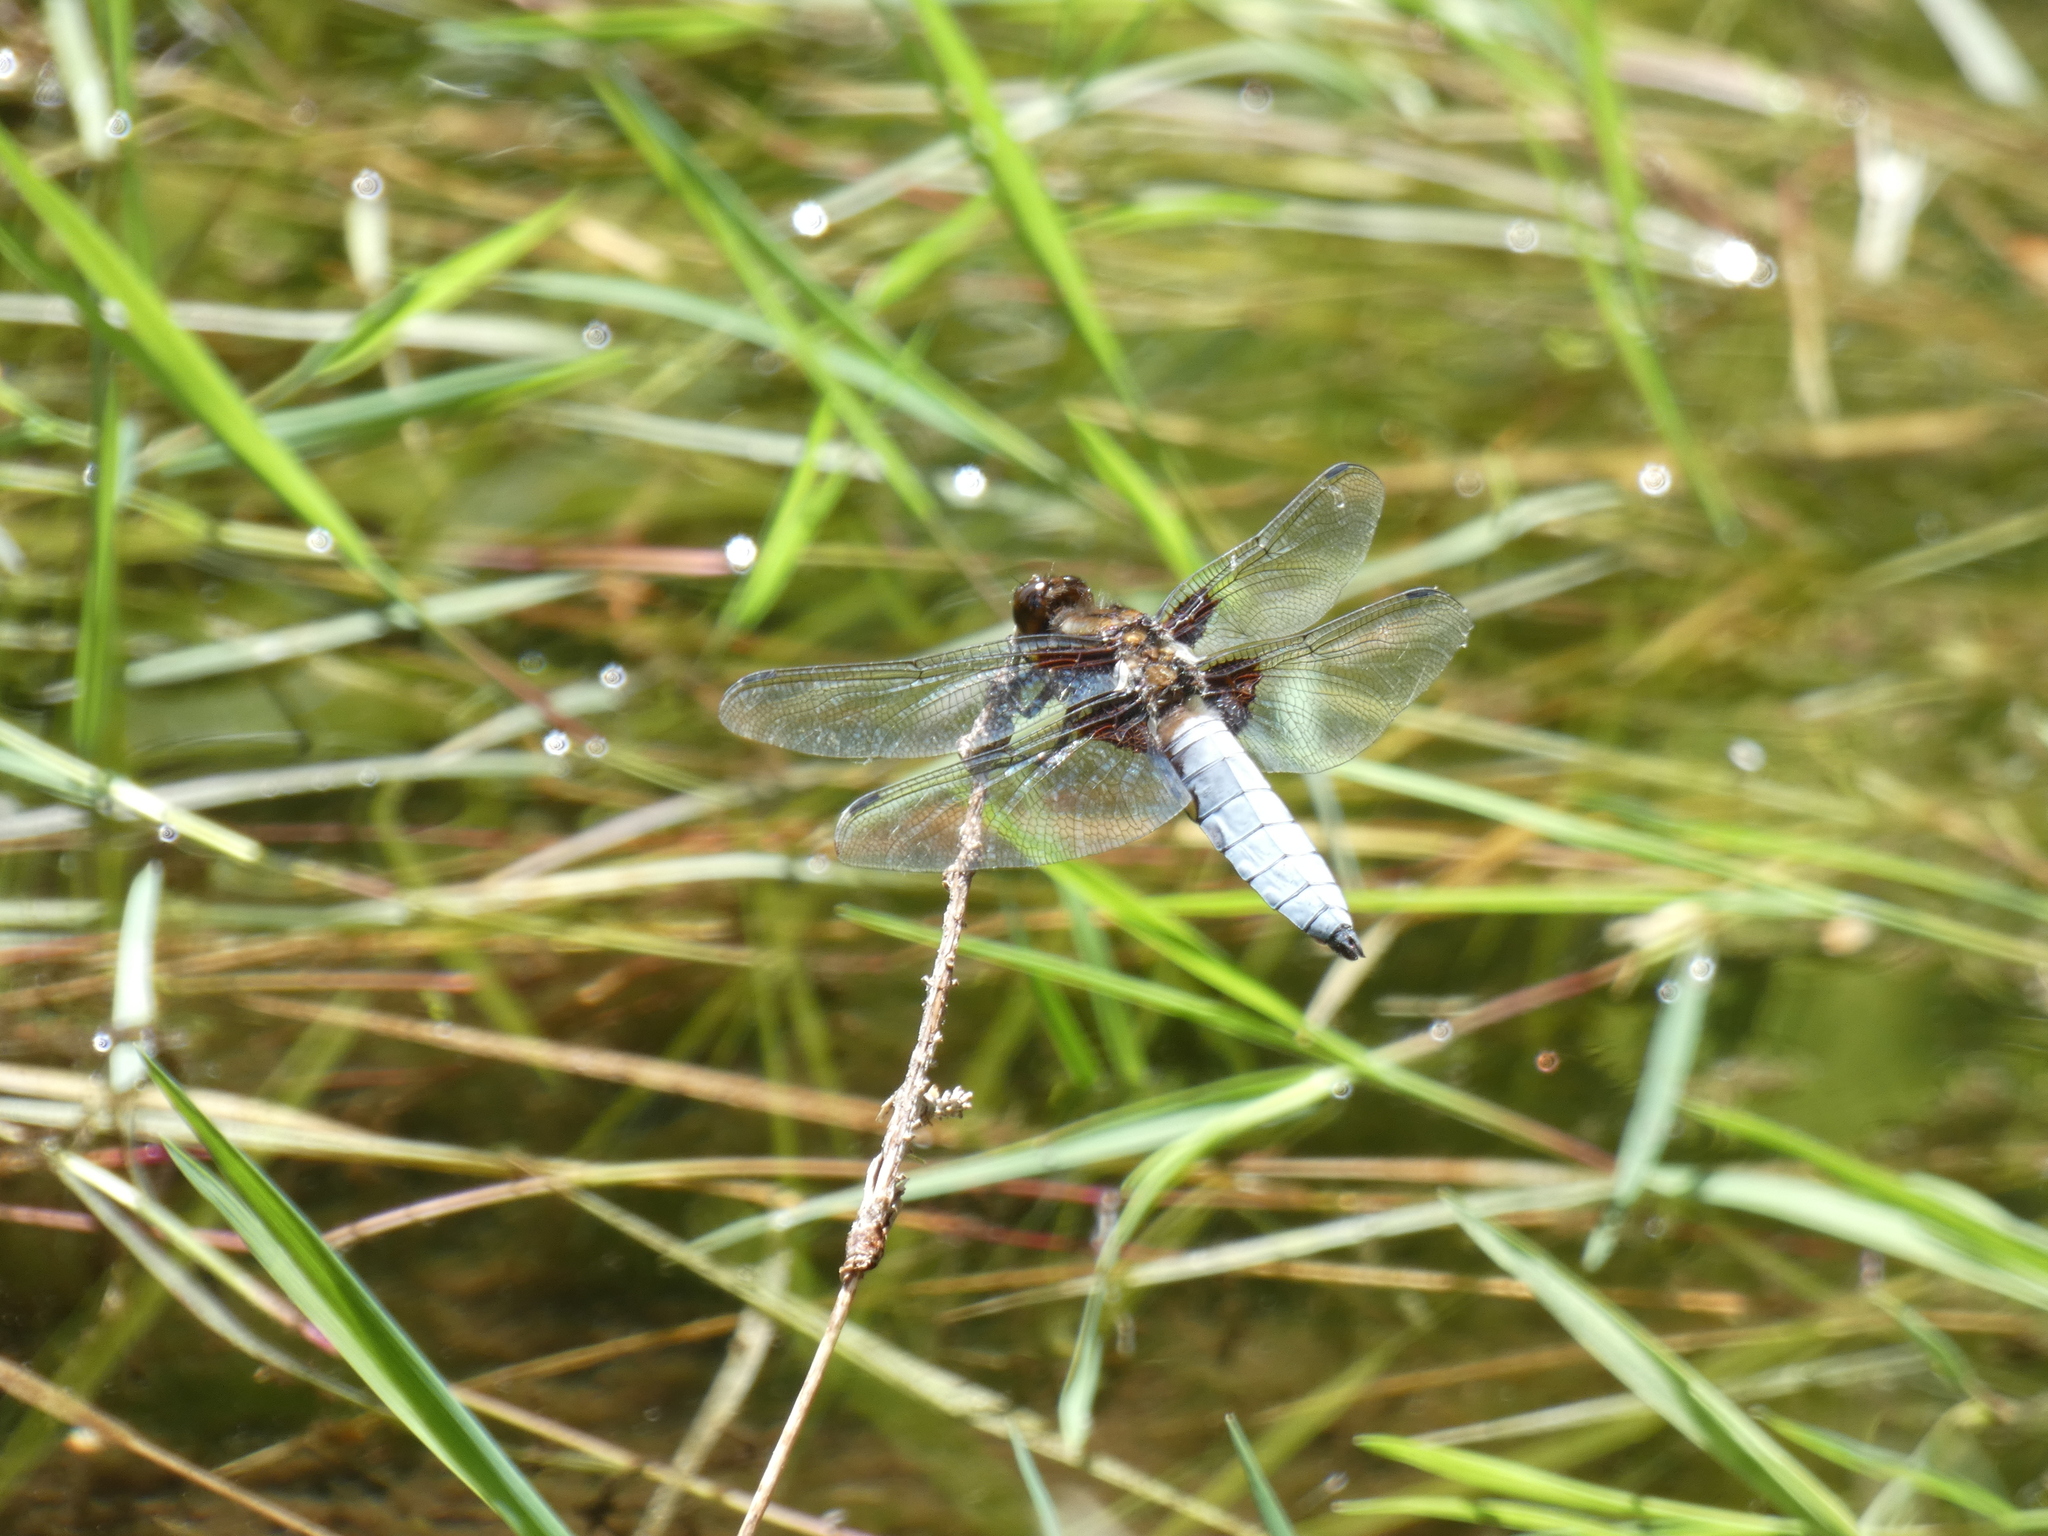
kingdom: Animalia
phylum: Arthropoda
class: Insecta
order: Odonata
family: Libellulidae
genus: Libellula
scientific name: Libellula depressa
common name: Broad-bodied chaser
